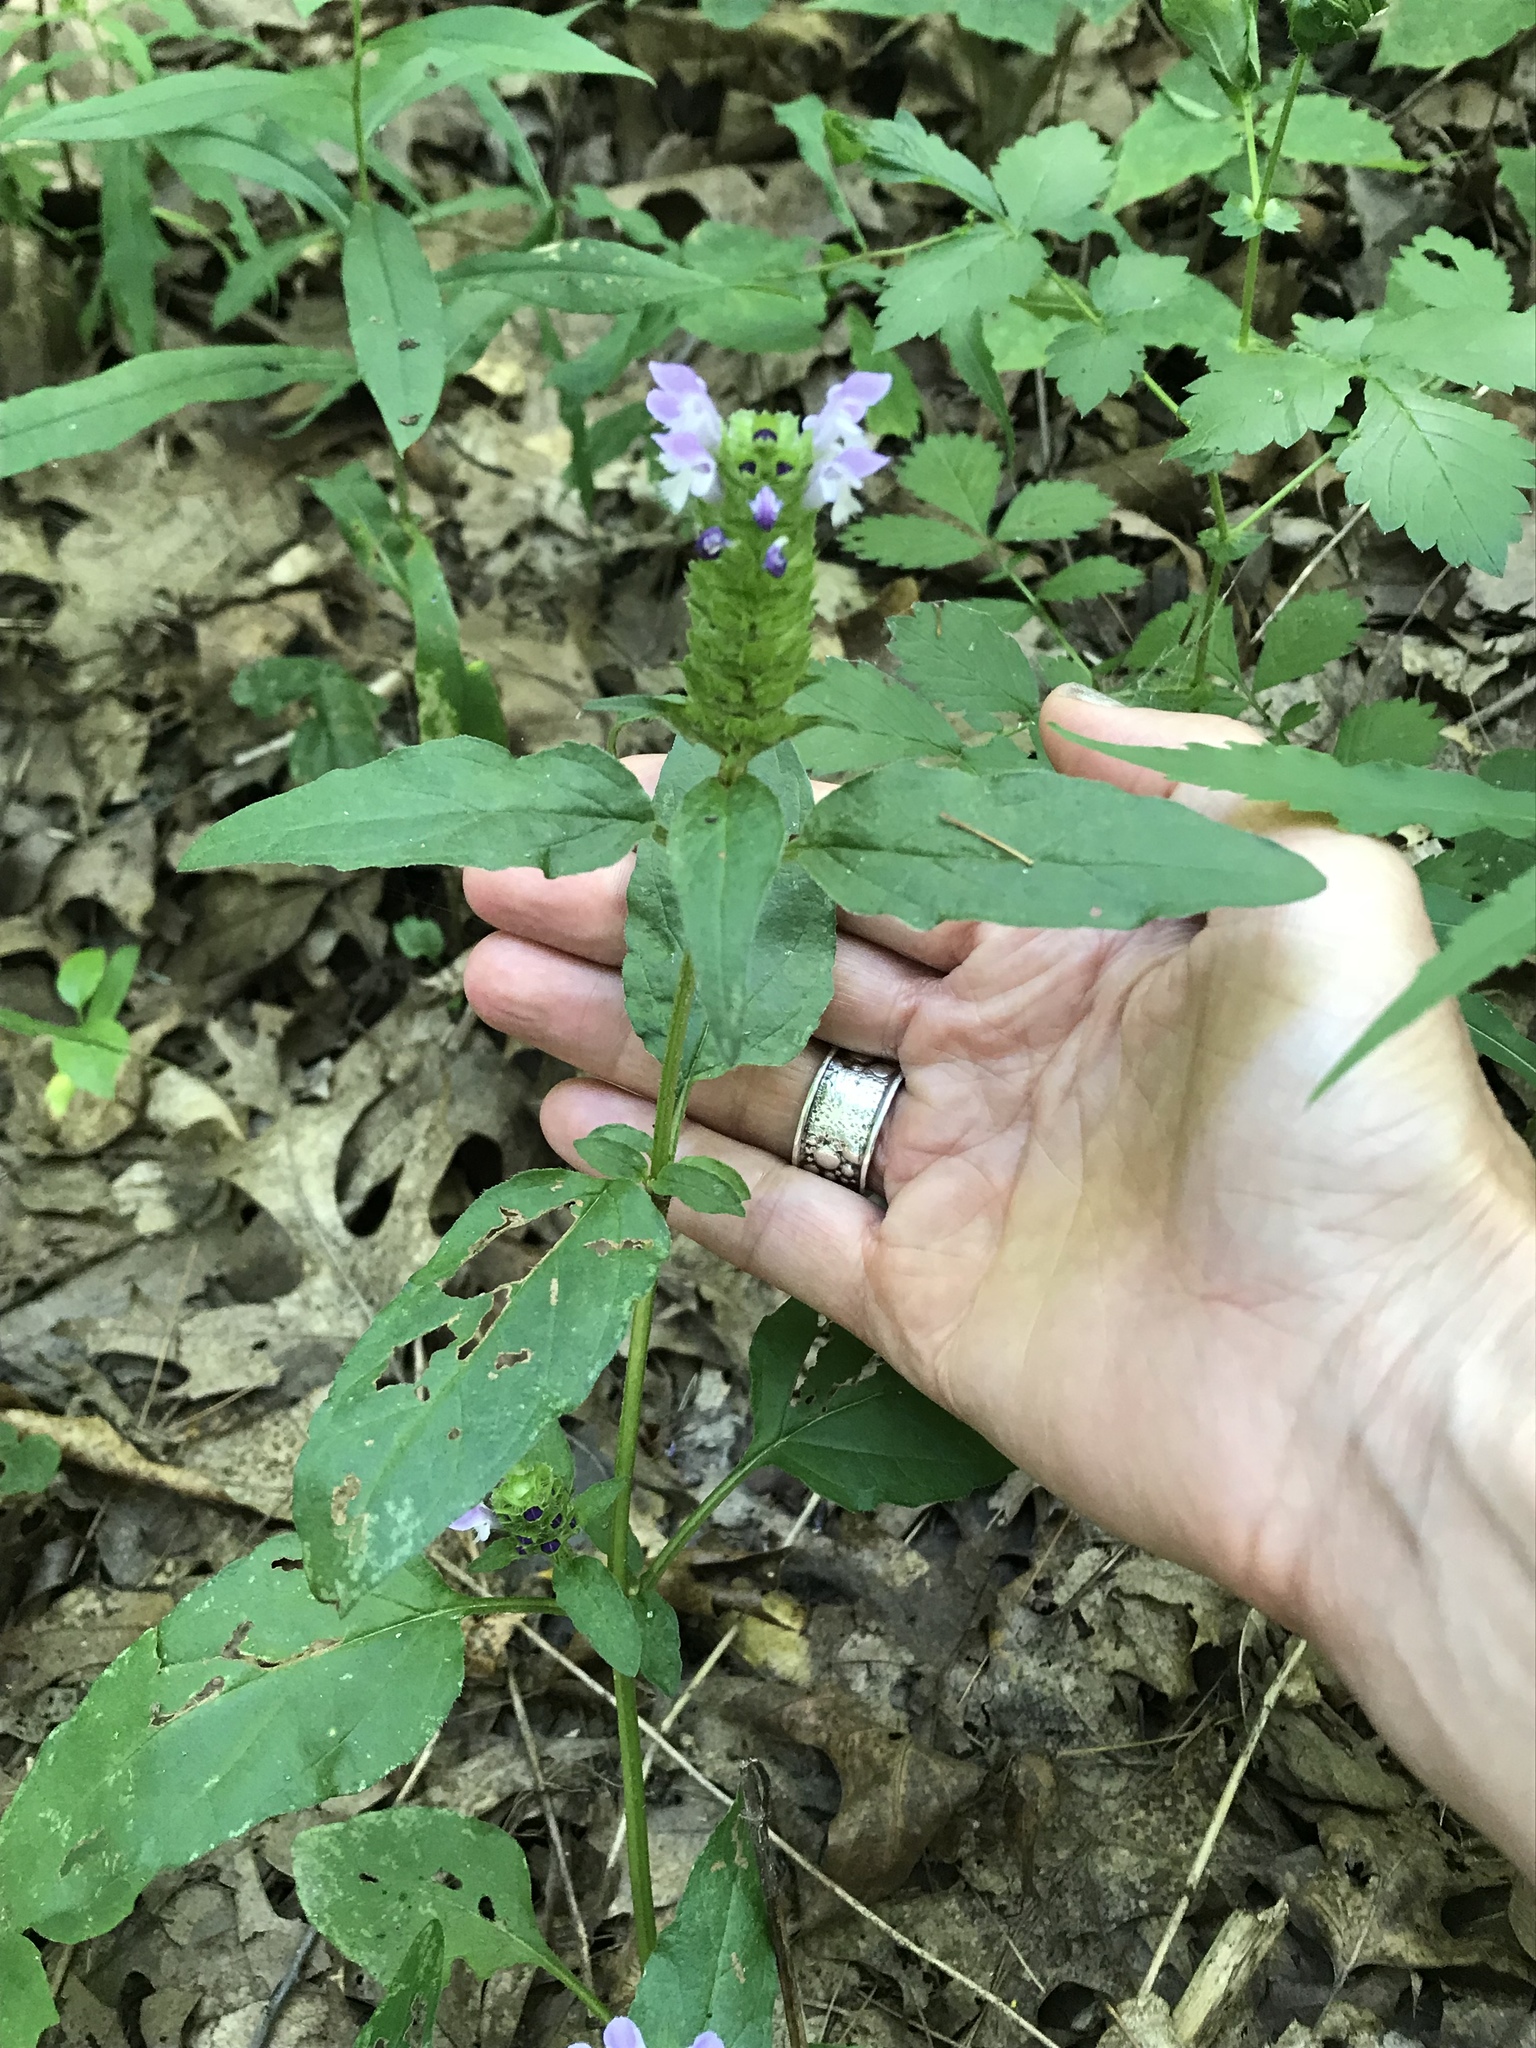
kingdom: Plantae
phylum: Tracheophyta
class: Magnoliopsida
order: Lamiales
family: Lamiaceae
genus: Prunella
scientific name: Prunella vulgaris
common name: Heal-all
